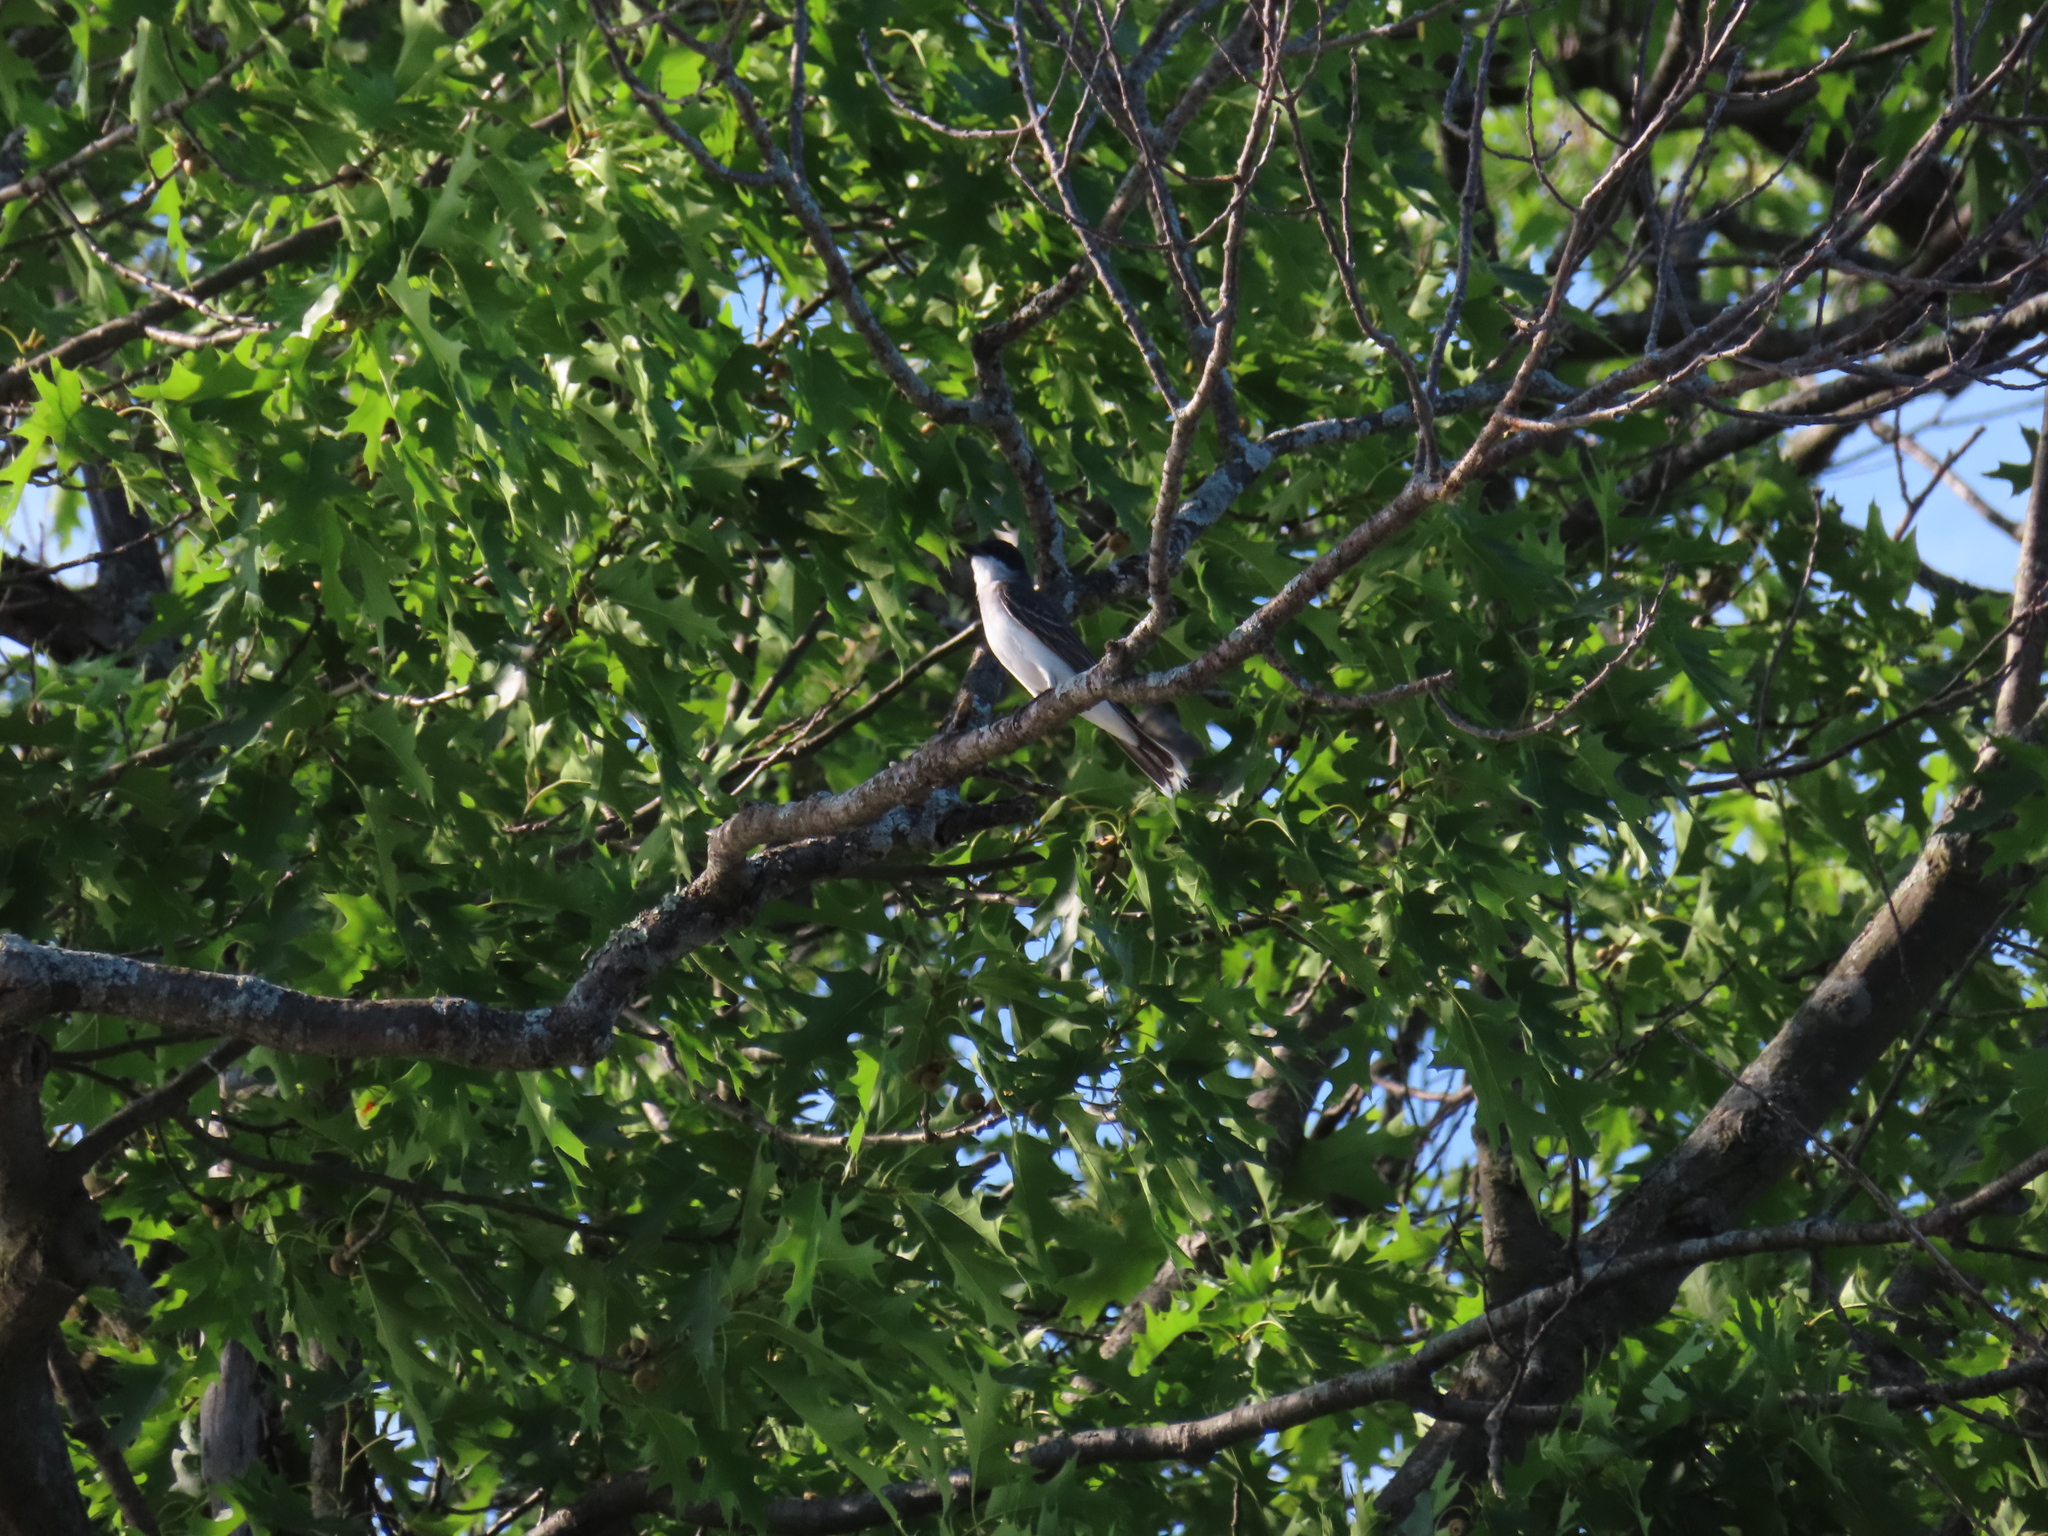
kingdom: Animalia
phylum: Chordata
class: Aves
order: Passeriformes
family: Tyrannidae
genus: Tyrannus
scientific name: Tyrannus tyrannus
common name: Eastern kingbird
